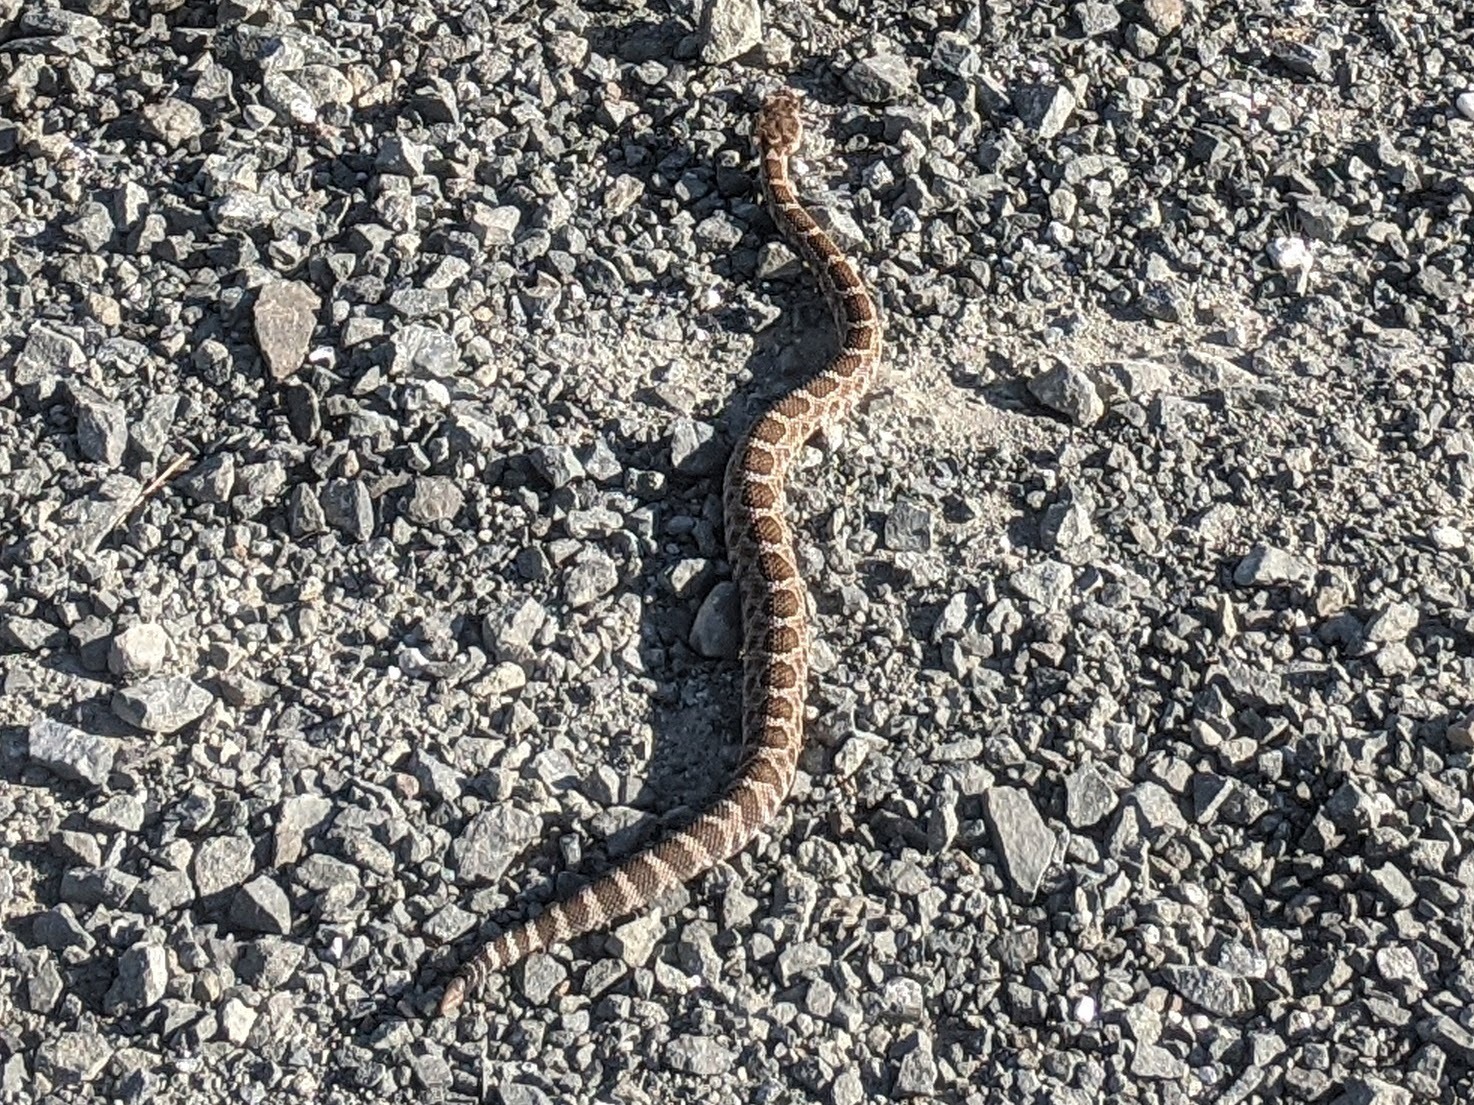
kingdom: Animalia
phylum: Chordata
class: Squamata
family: Viperidae
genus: Crotalus
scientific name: Crotalus oreganus
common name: Abyssus
